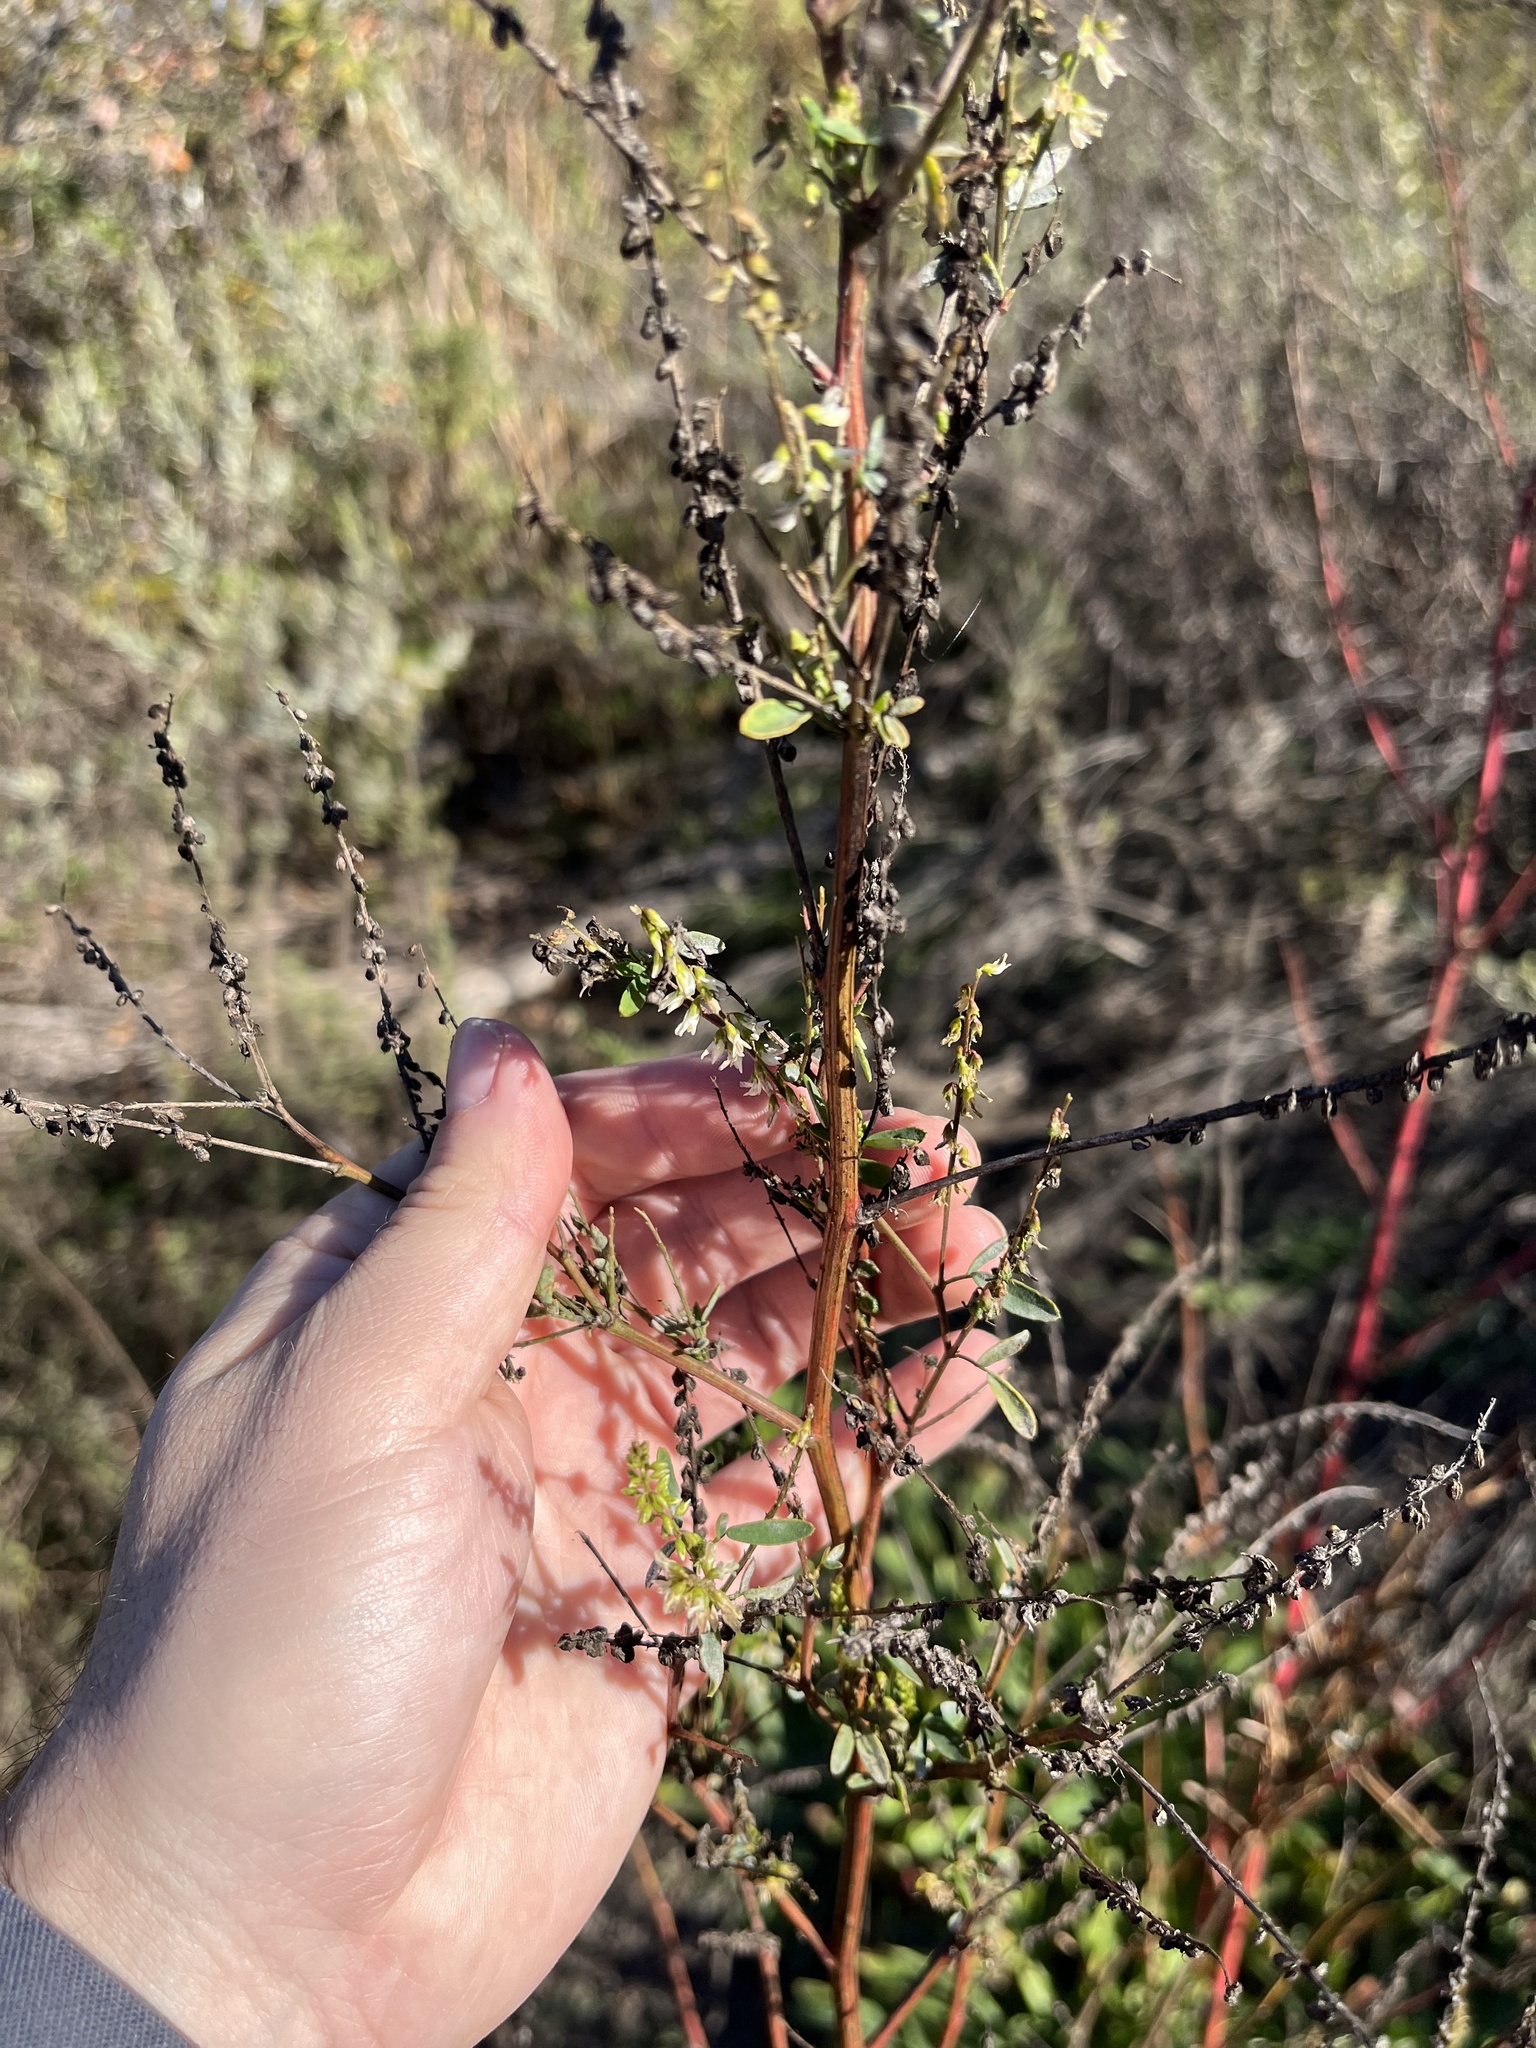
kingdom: Plantae
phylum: Tracheophyta
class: Magnoliopsida
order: Fabales
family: Fabaceae
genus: Melilotus
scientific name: Melilotus albus
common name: White melilot
